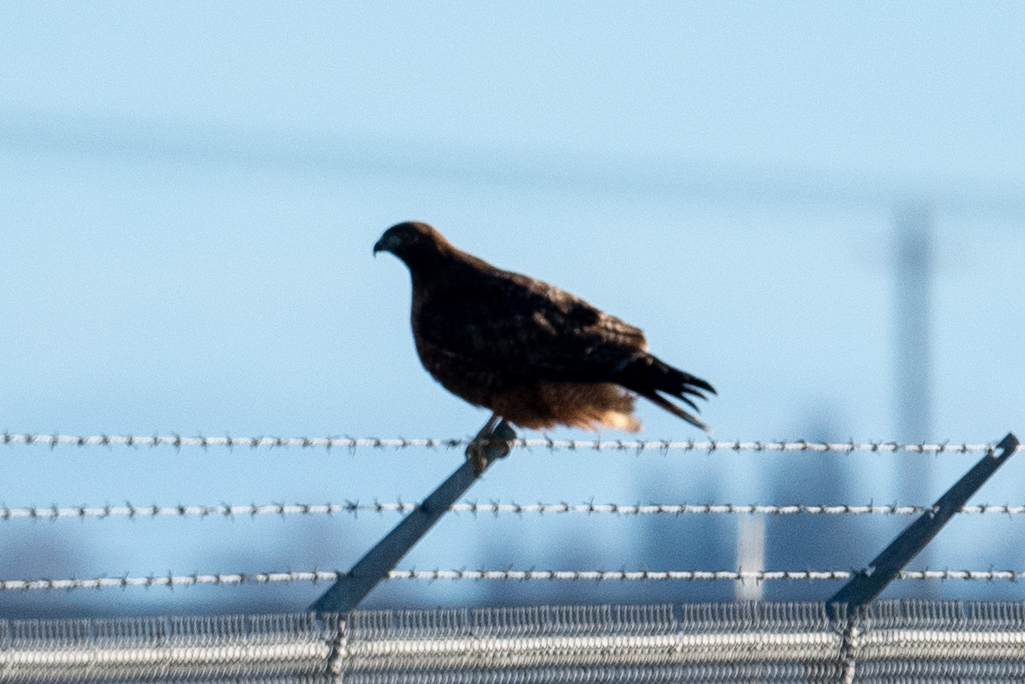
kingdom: Animalia
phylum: Chordata
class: Aves
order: Accipitriformes
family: Accipitridae
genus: Buteo
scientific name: Buteo jamaicensis
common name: Red-tailed hawk
